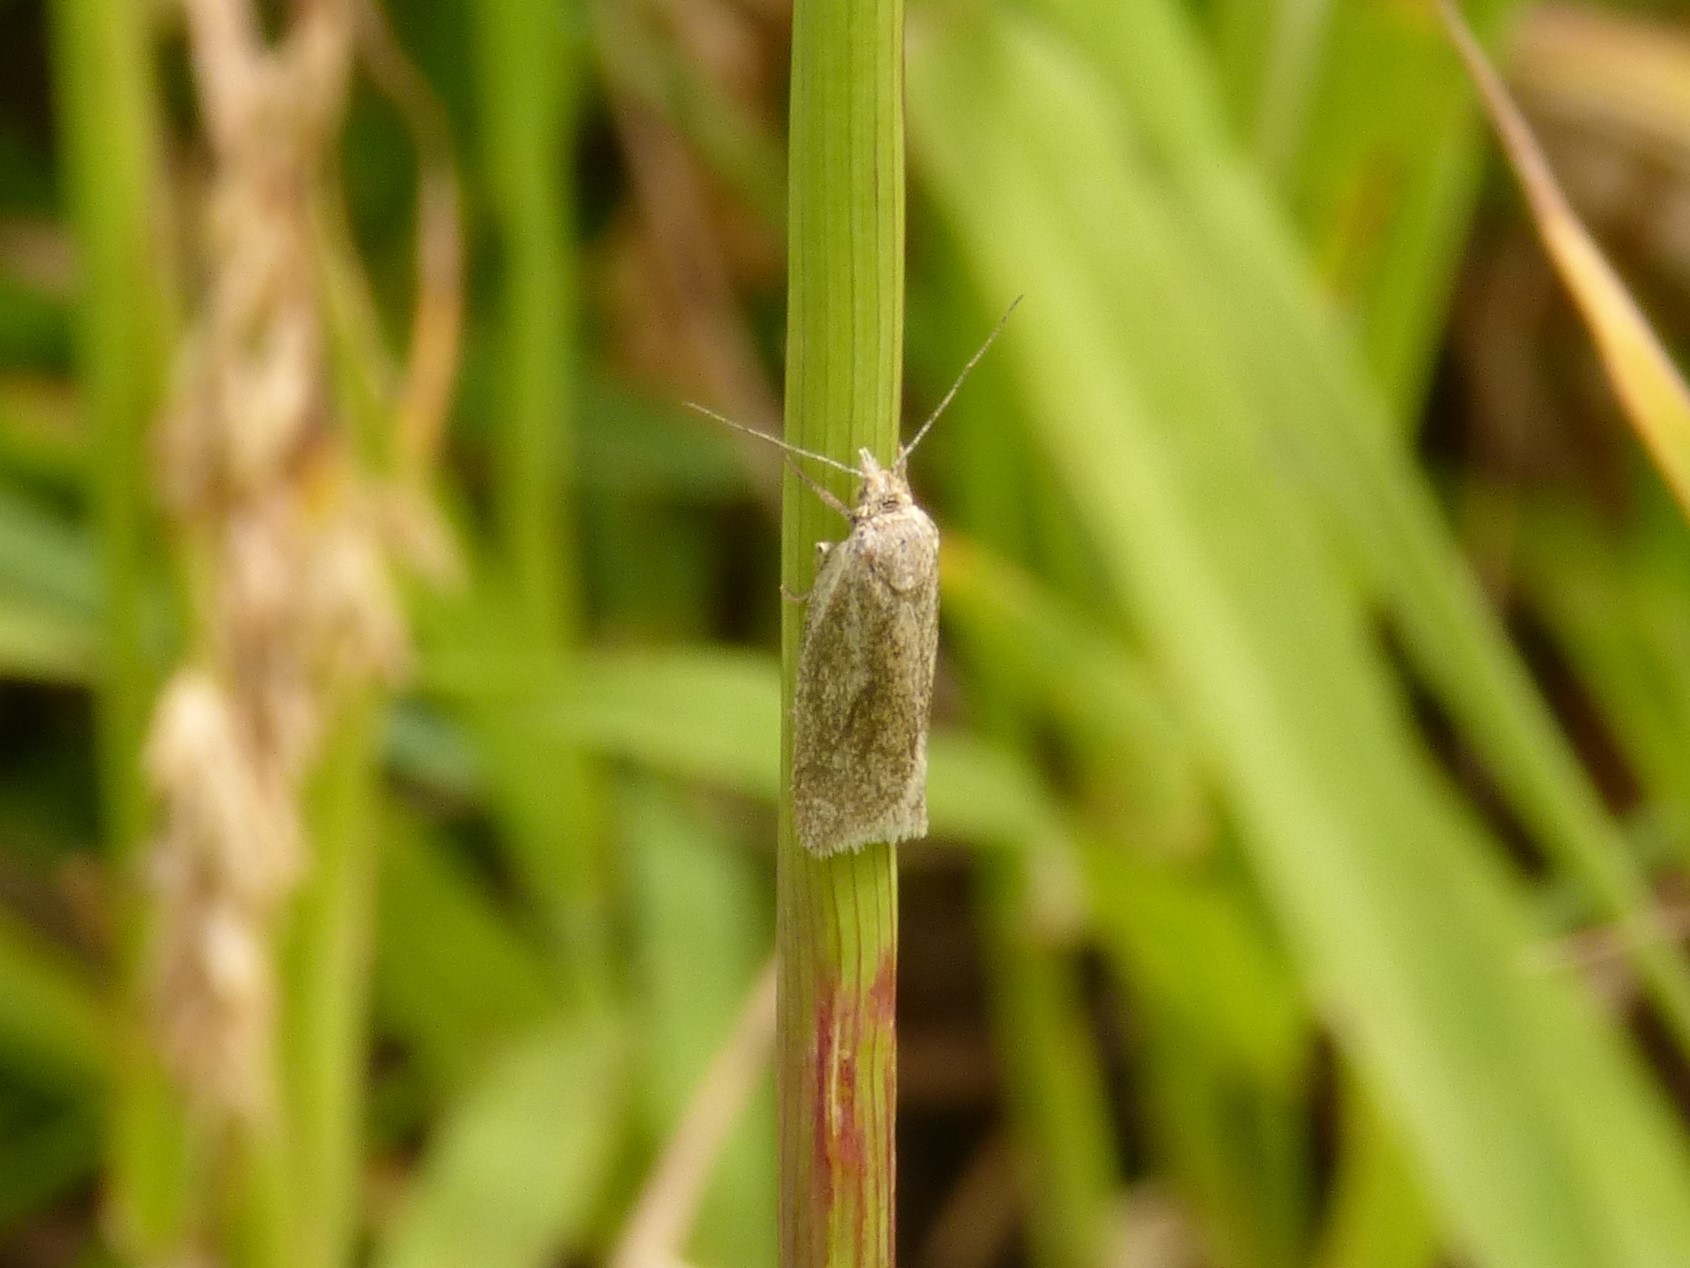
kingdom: Animalia
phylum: Arthropoda
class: Insecta
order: Lepidoptera
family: Tortricidae
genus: Eana
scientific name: Eana osseana
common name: Dotted shade
